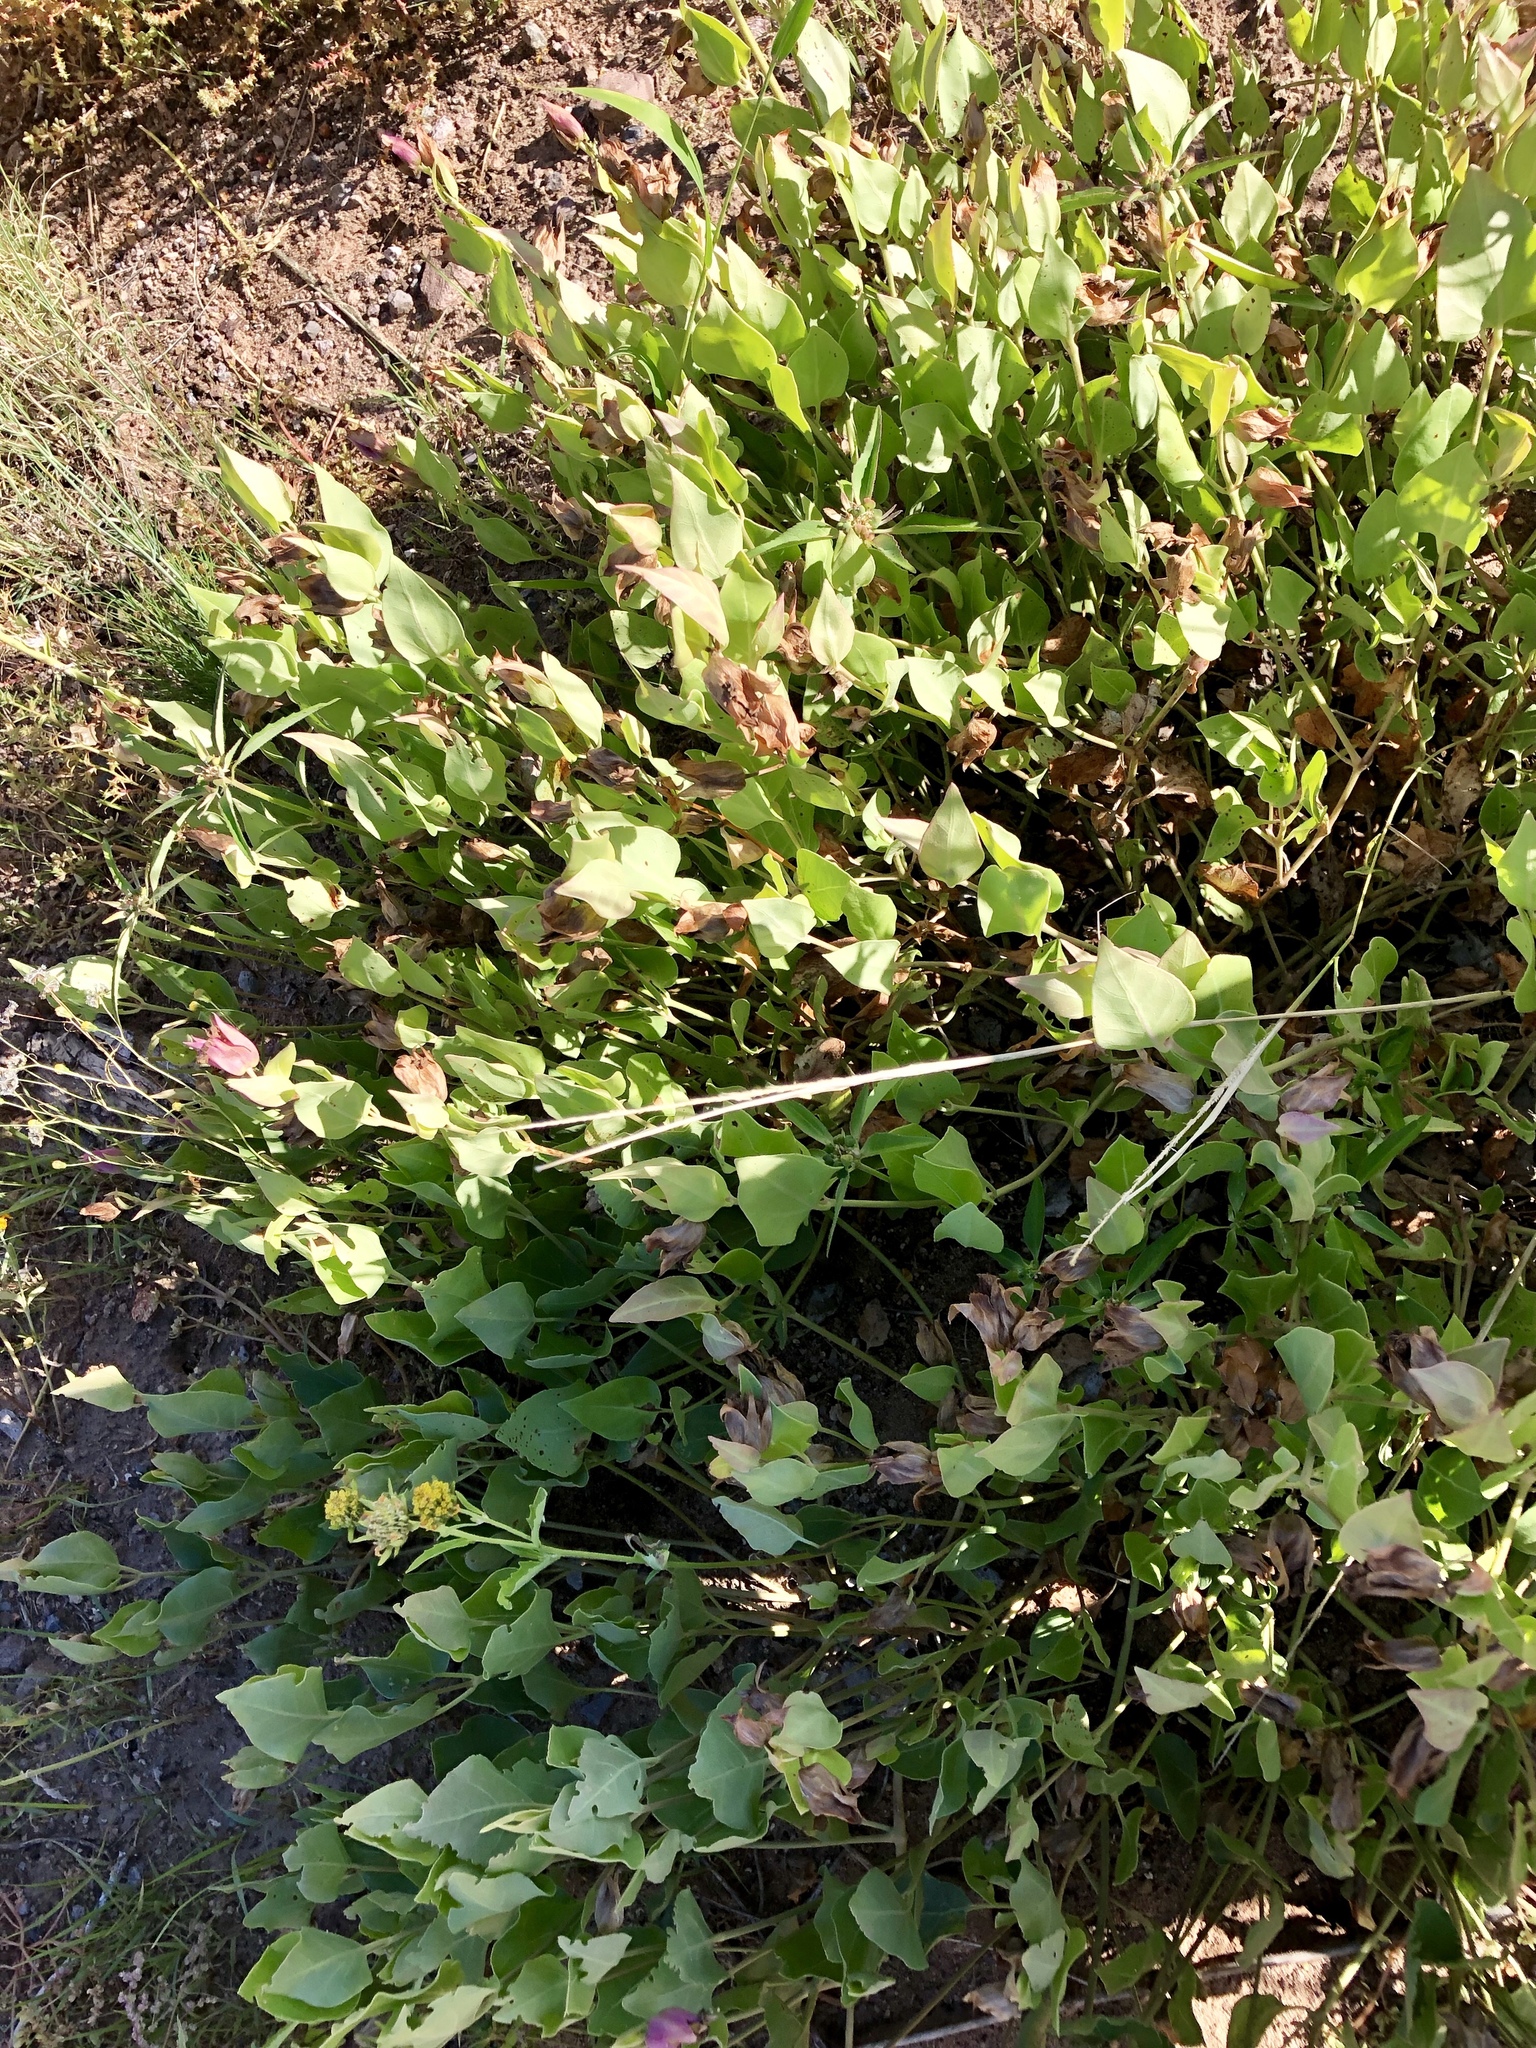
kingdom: Plantae
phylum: Tracheophyta
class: Magnoliopsida
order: Caryophyllales
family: Nyctaginaceae
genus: Mirabilis
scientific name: Mirabilis multiflora
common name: Froebel's four-o'clock
